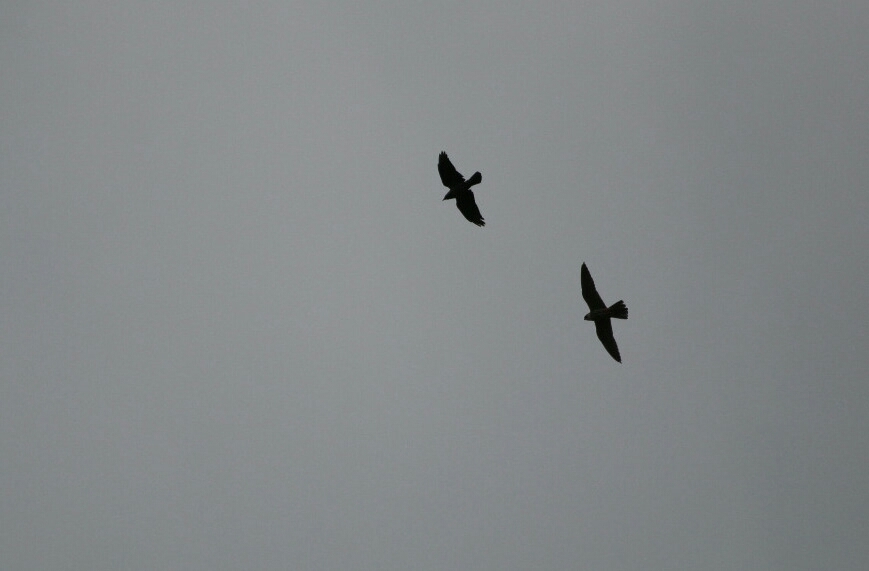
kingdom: Animalia
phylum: Chordata
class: Aves
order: Falconiformes
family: Falconidae
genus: Falco
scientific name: Falco subbuteo
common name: Eurasian hobby
